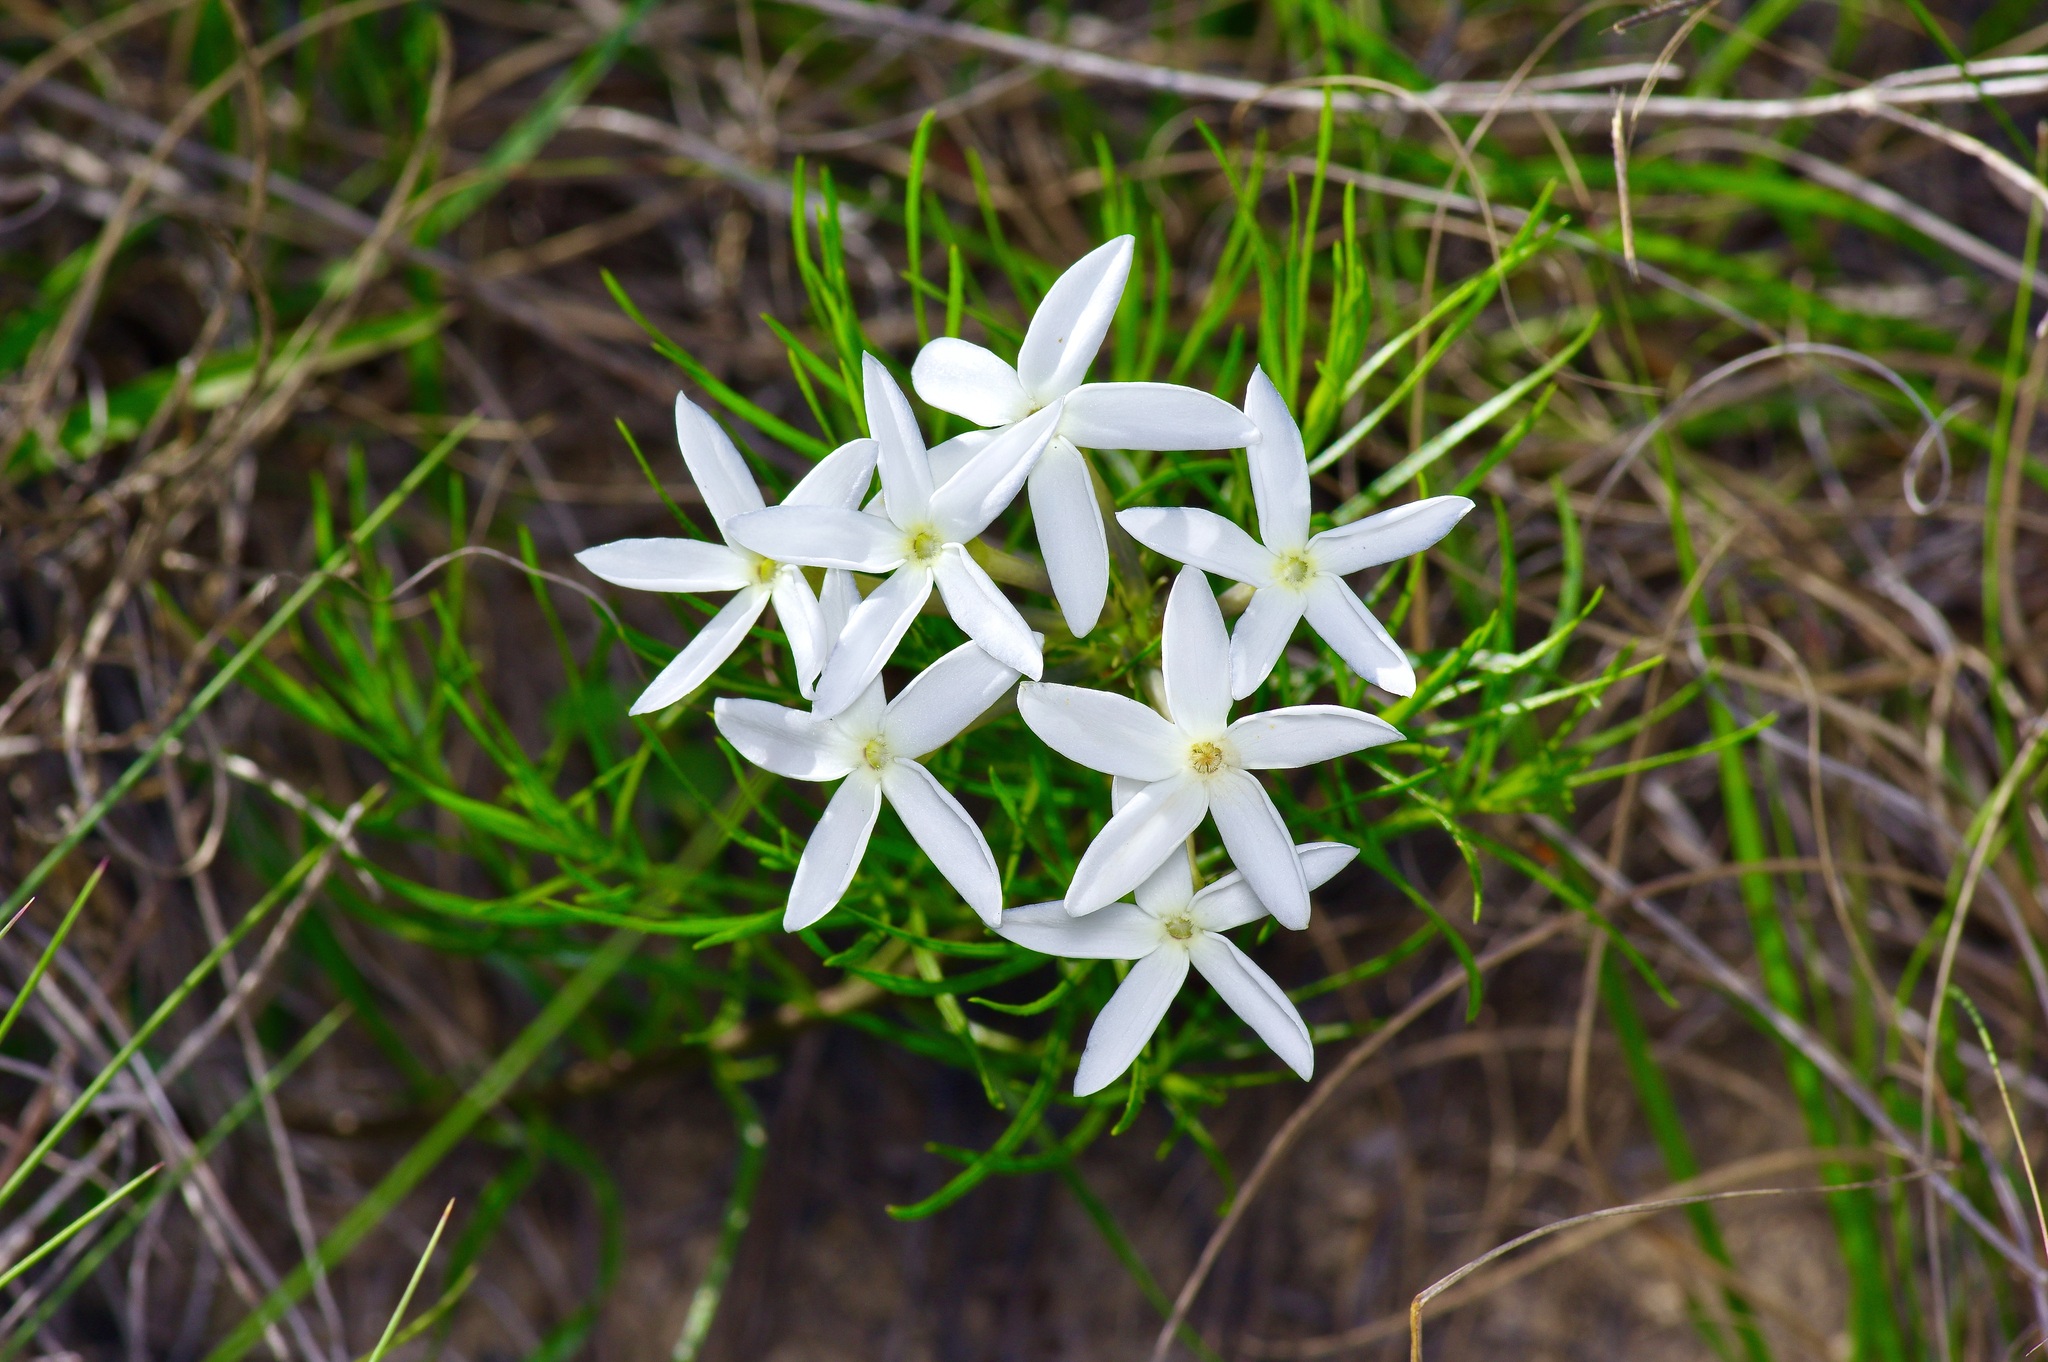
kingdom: Plantae
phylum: Tracheophyta
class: Magnoliopsida
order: Gentianales
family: Apocynaceae
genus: Amsonia
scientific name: Amsonia longiflora
